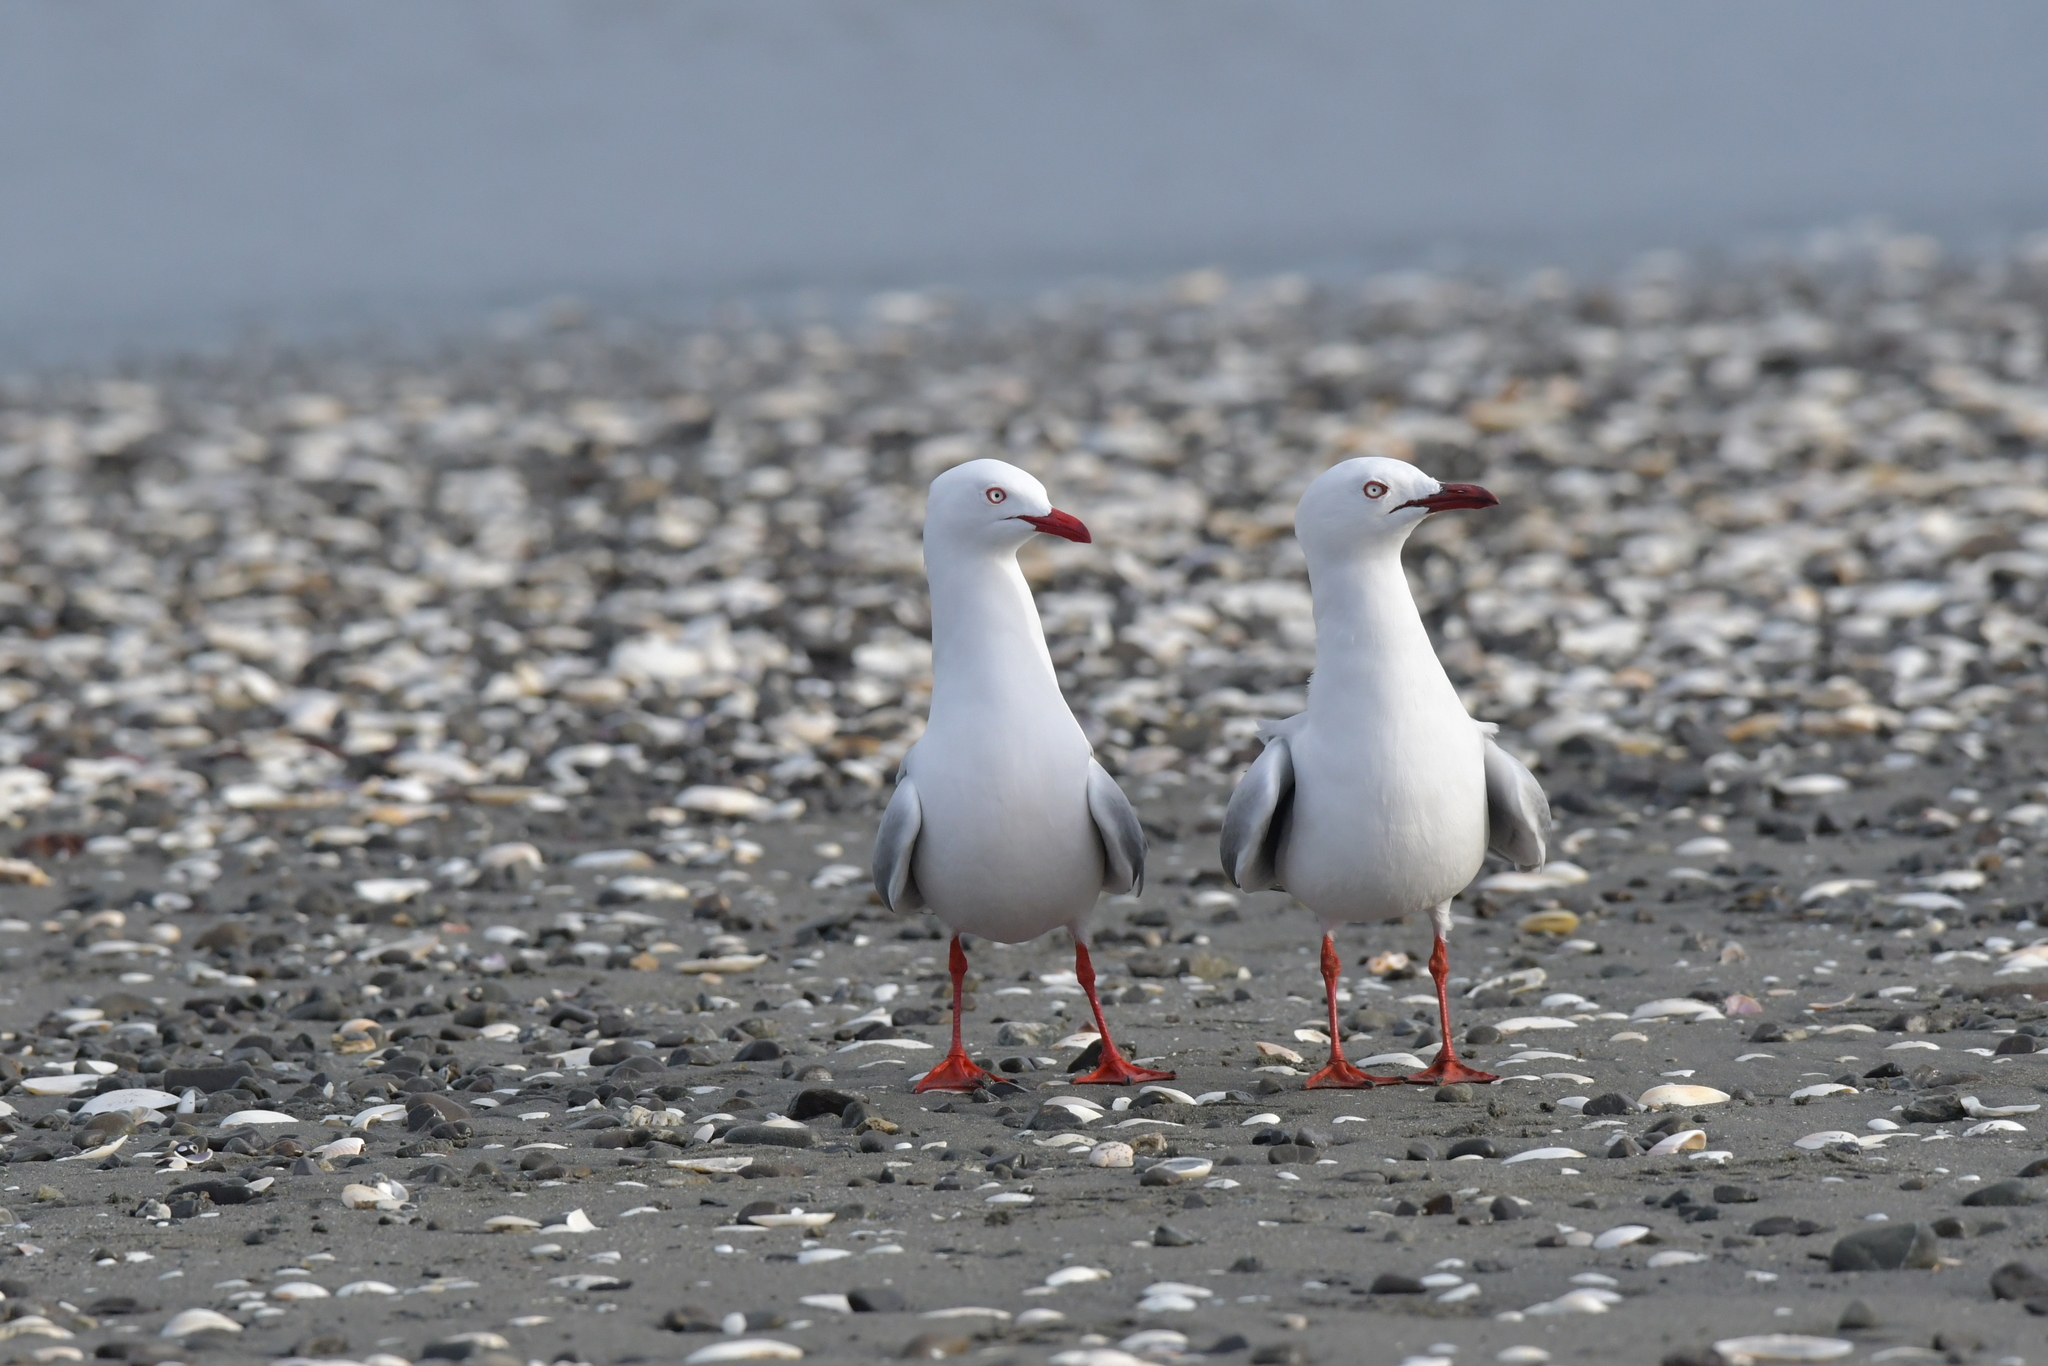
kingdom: Animalia
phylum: Chordata
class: Aves
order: Charadriiformes
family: Laridae
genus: Chroicocephalus
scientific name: Chroicocephalus novaehollandiae
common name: Silver gull
